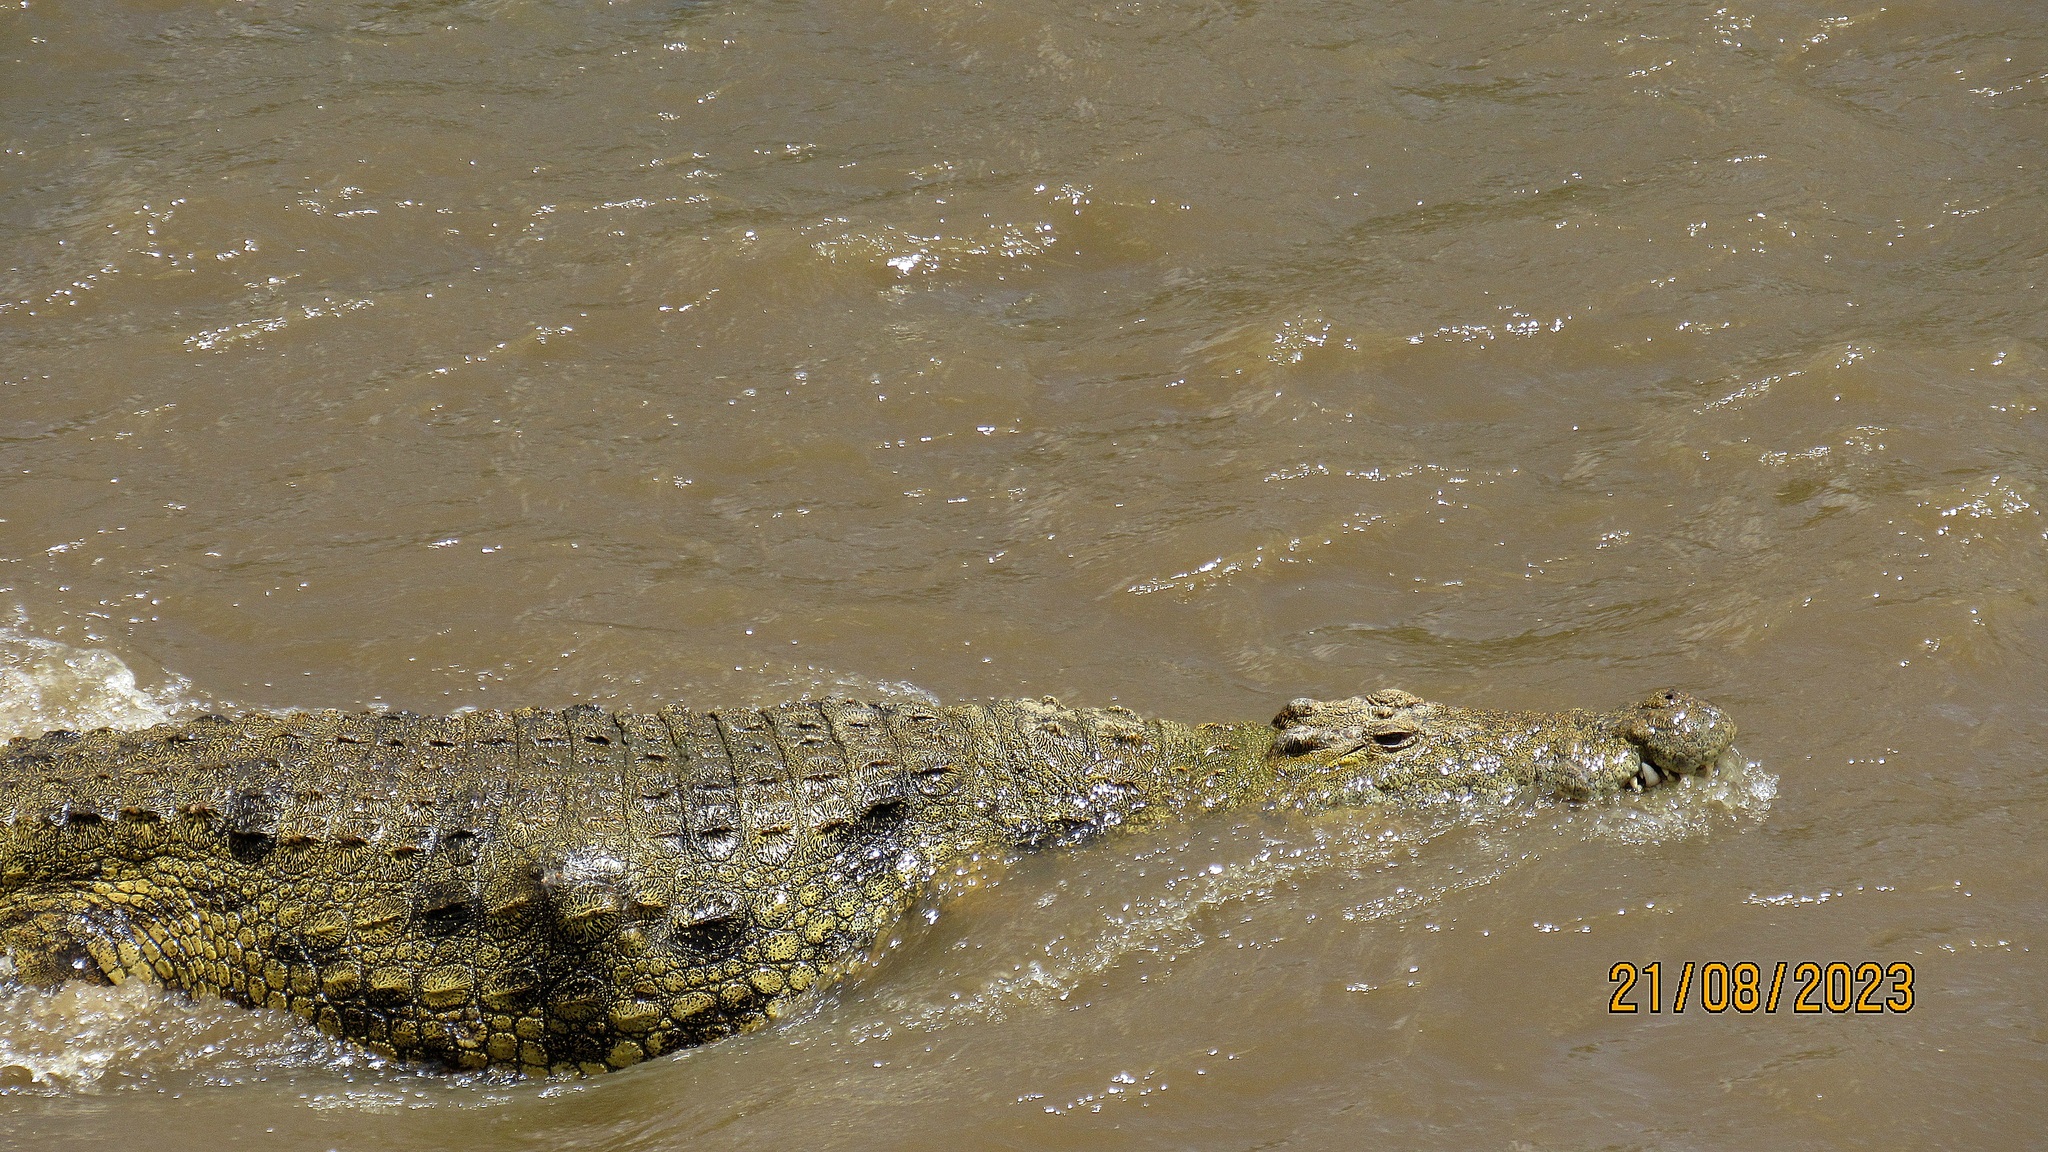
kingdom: Animalia
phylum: Chordata
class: Crocodylia
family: Crocodylidae
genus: Crocodylus
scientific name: Crocodylus niloticus
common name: Nile crocodile
